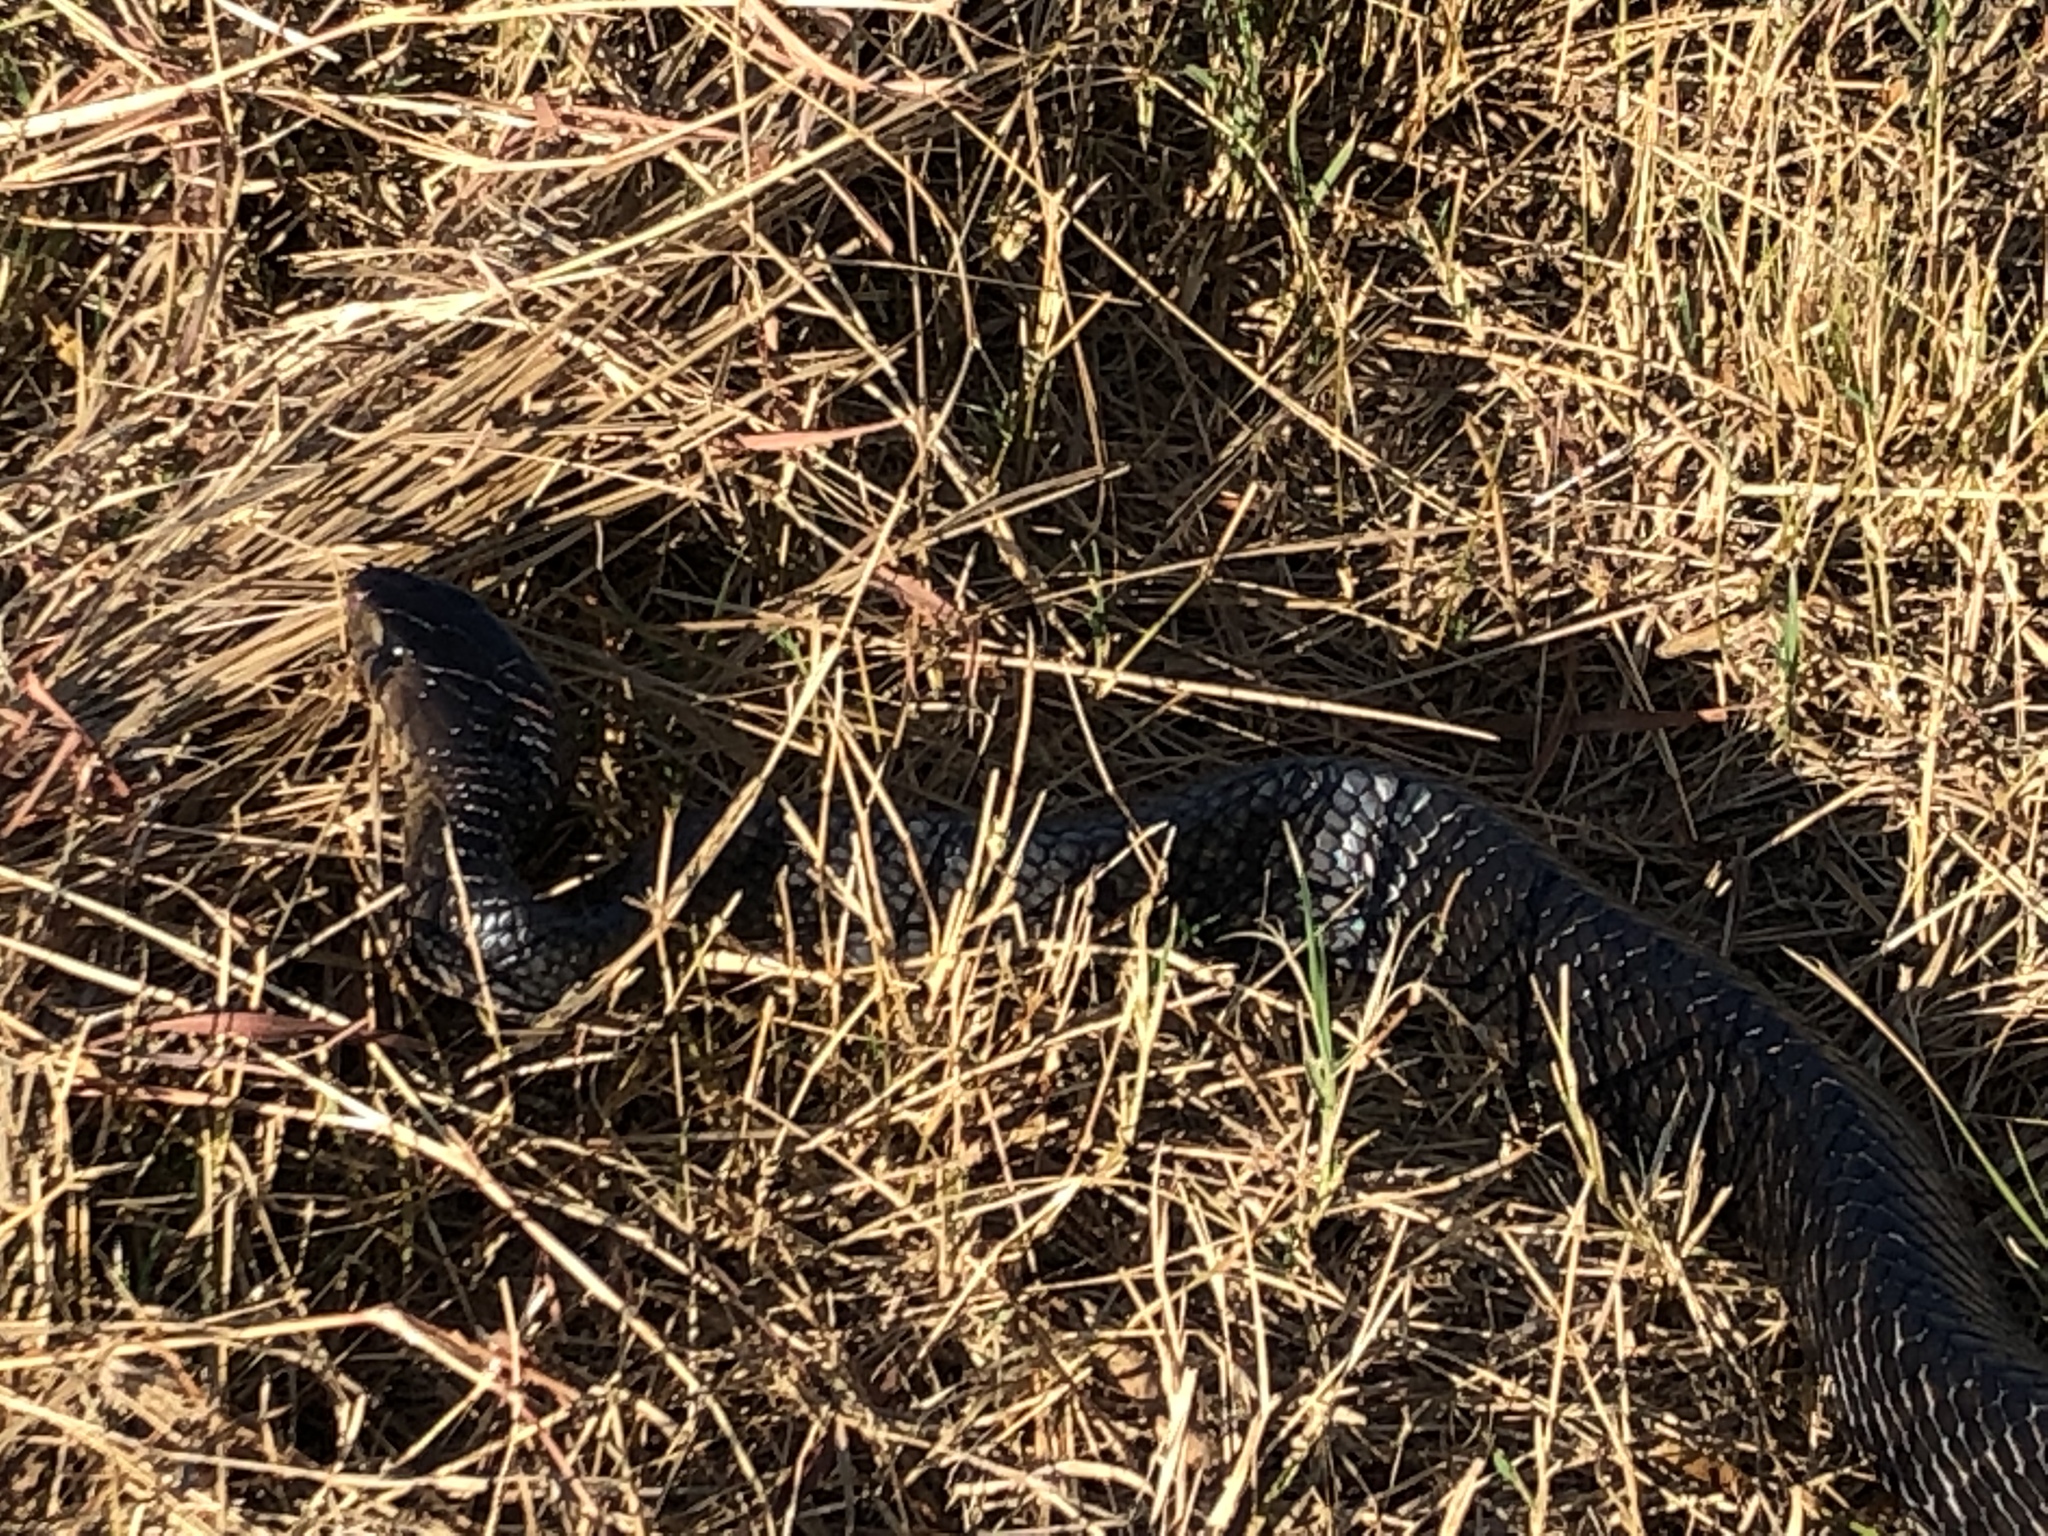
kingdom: Animalia
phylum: Chordata
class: Squamata
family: Colubridae
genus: Drymarchon
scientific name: Drymarchon melanurus
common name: Central american indigo snake
